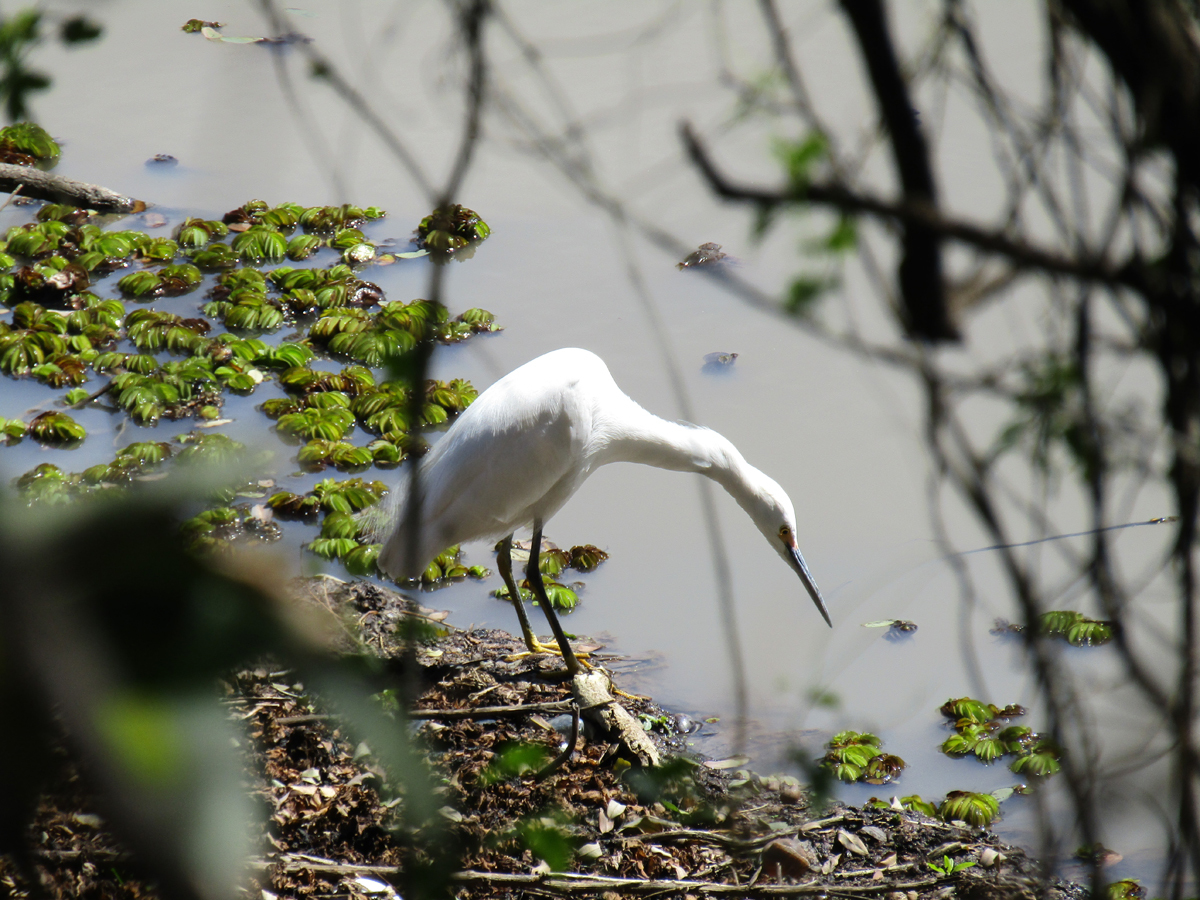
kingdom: Animalia
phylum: Chordata
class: Aves
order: Pelecaniformes
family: Ardeidae
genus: Egretta
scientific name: Egretta thula
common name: Snowy egret
